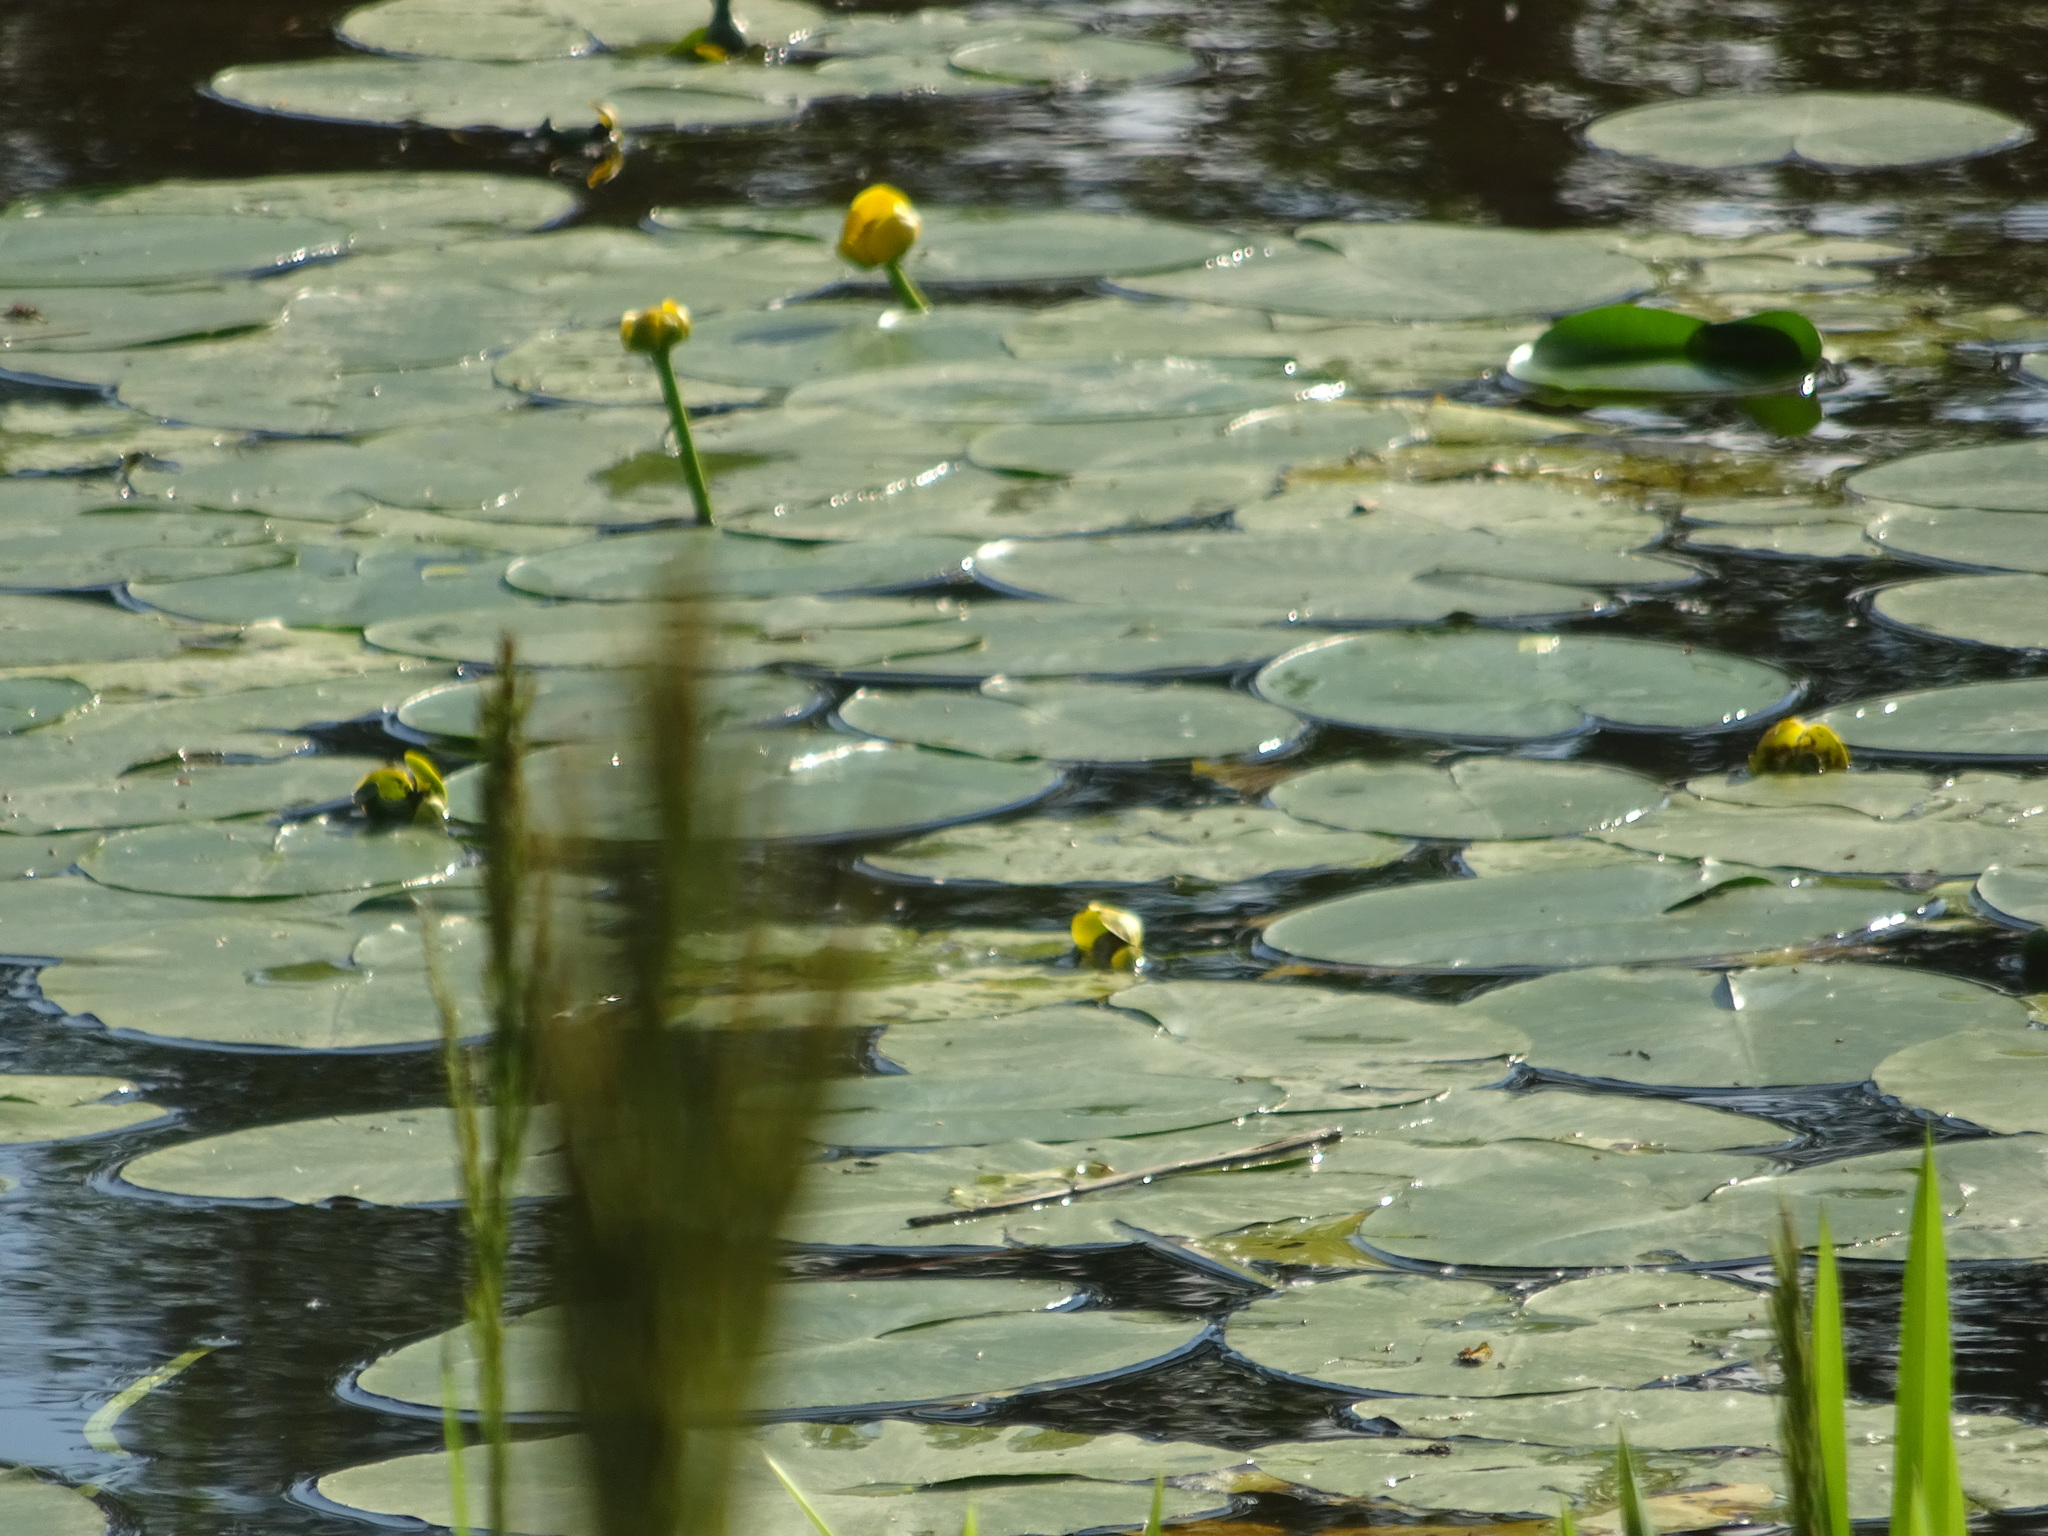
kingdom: Plantae
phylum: Tracheophyta
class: Magnoliopsida
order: Nymphaeales
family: Nymphaeaceae
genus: Nuphar
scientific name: Nuphar lutea
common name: Yellow water-lily
